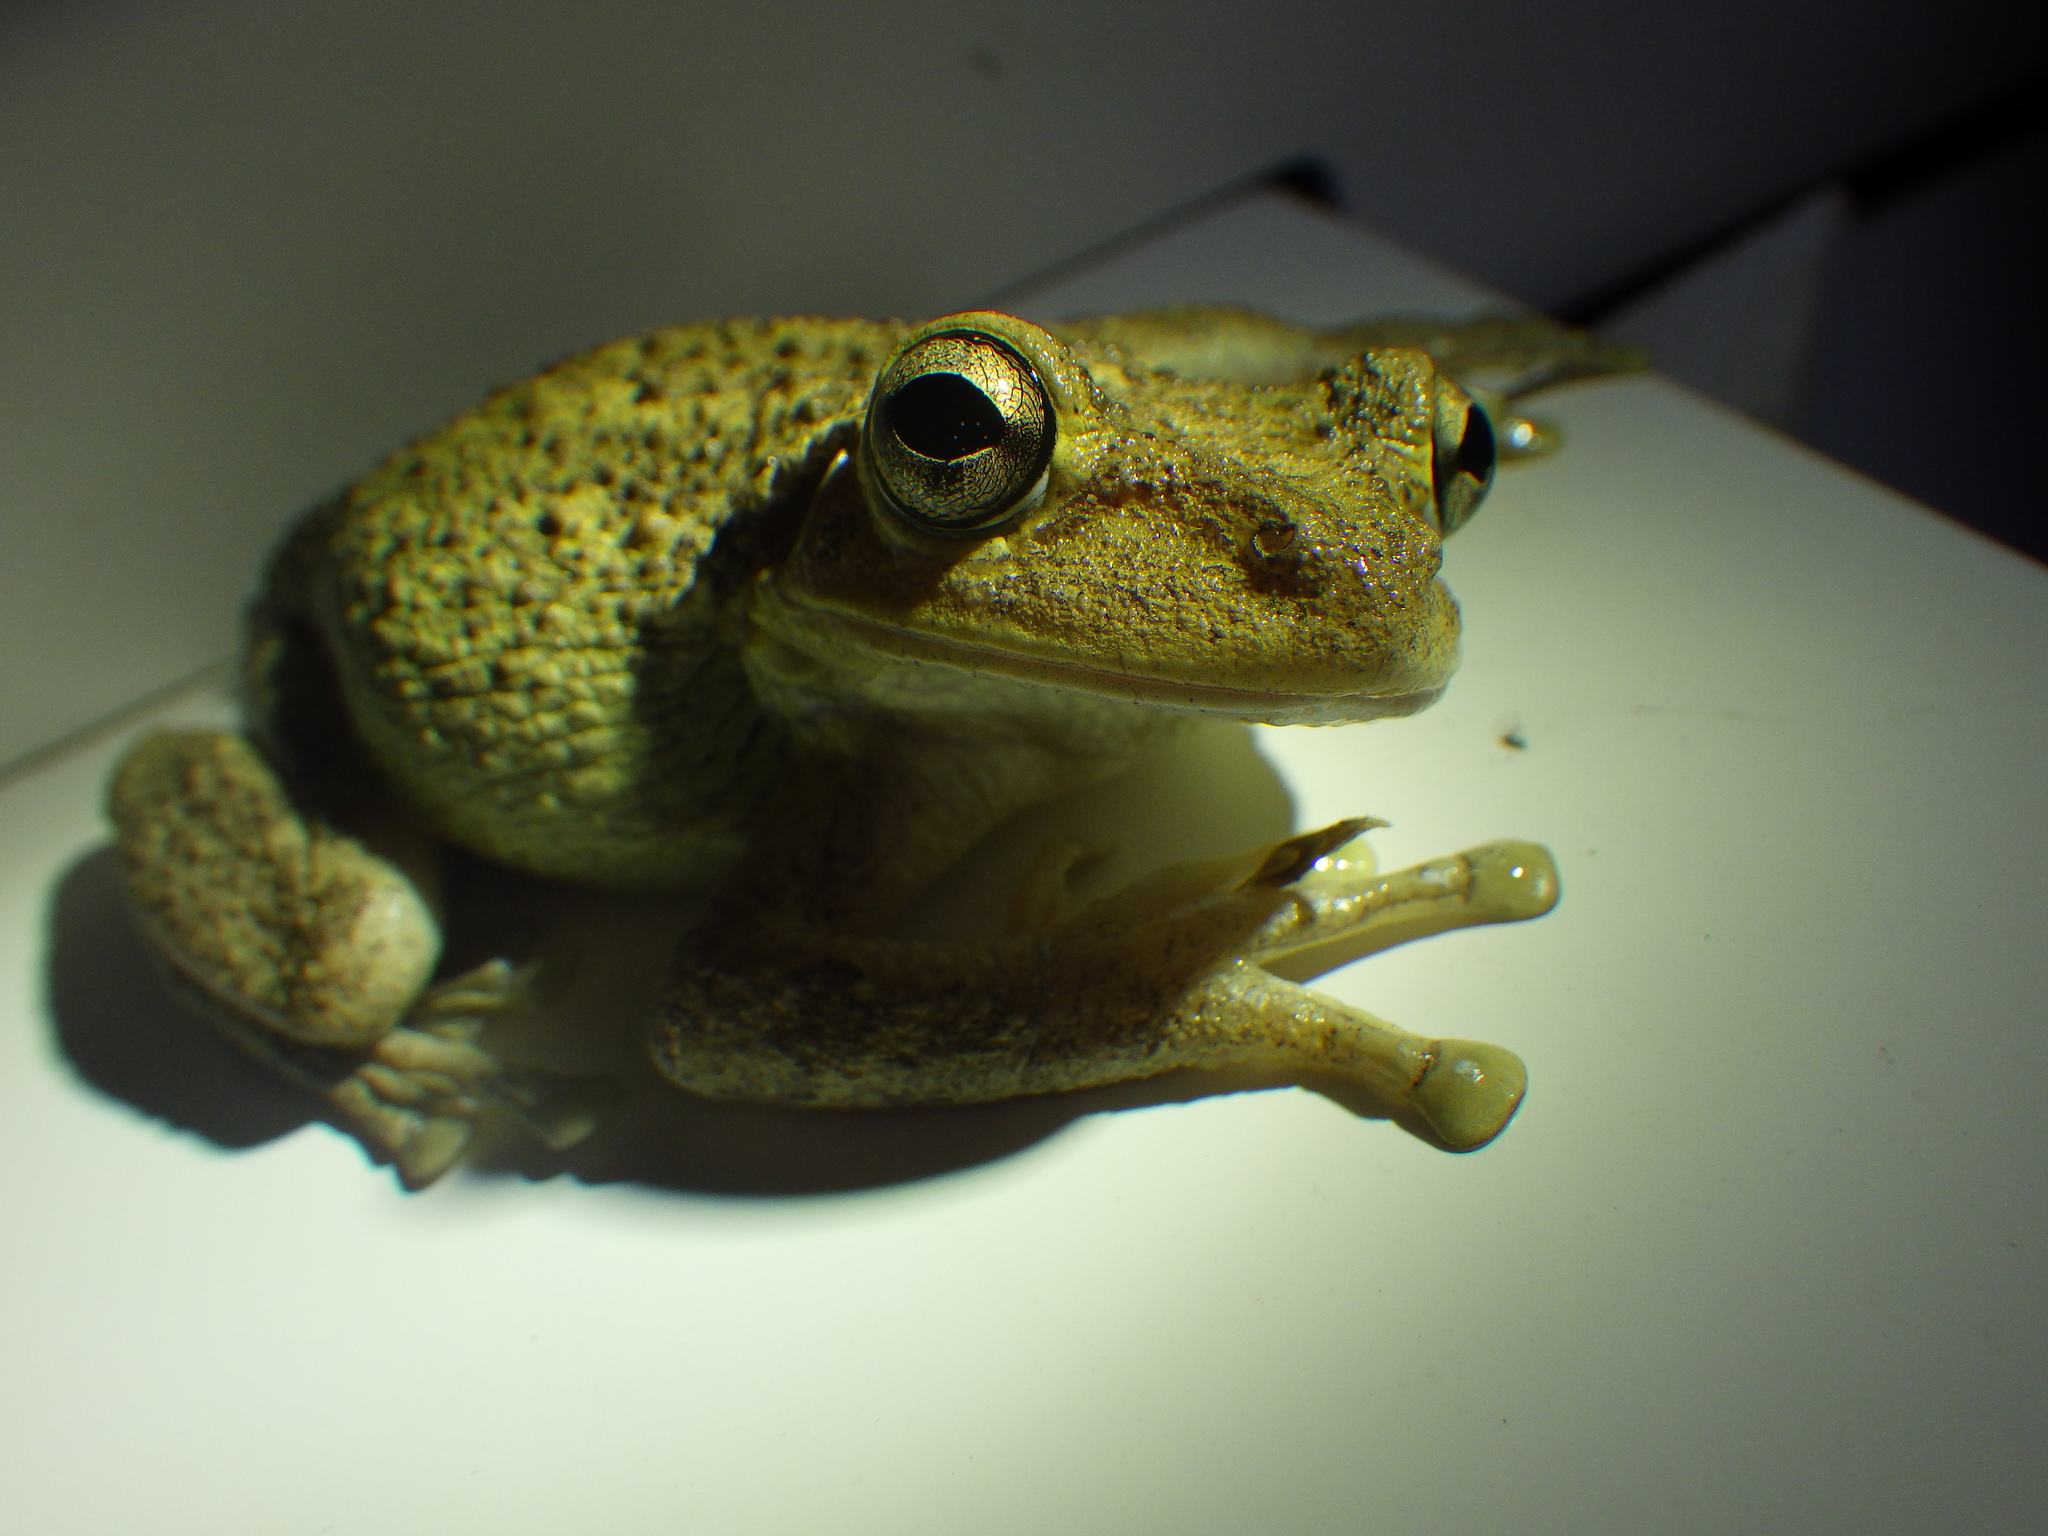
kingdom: Animalia
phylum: Chordata
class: Amphibia
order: Anura
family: Hylidae
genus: Osteopilus
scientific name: Osteopilus septentrionalis
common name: Cuban treefrog
